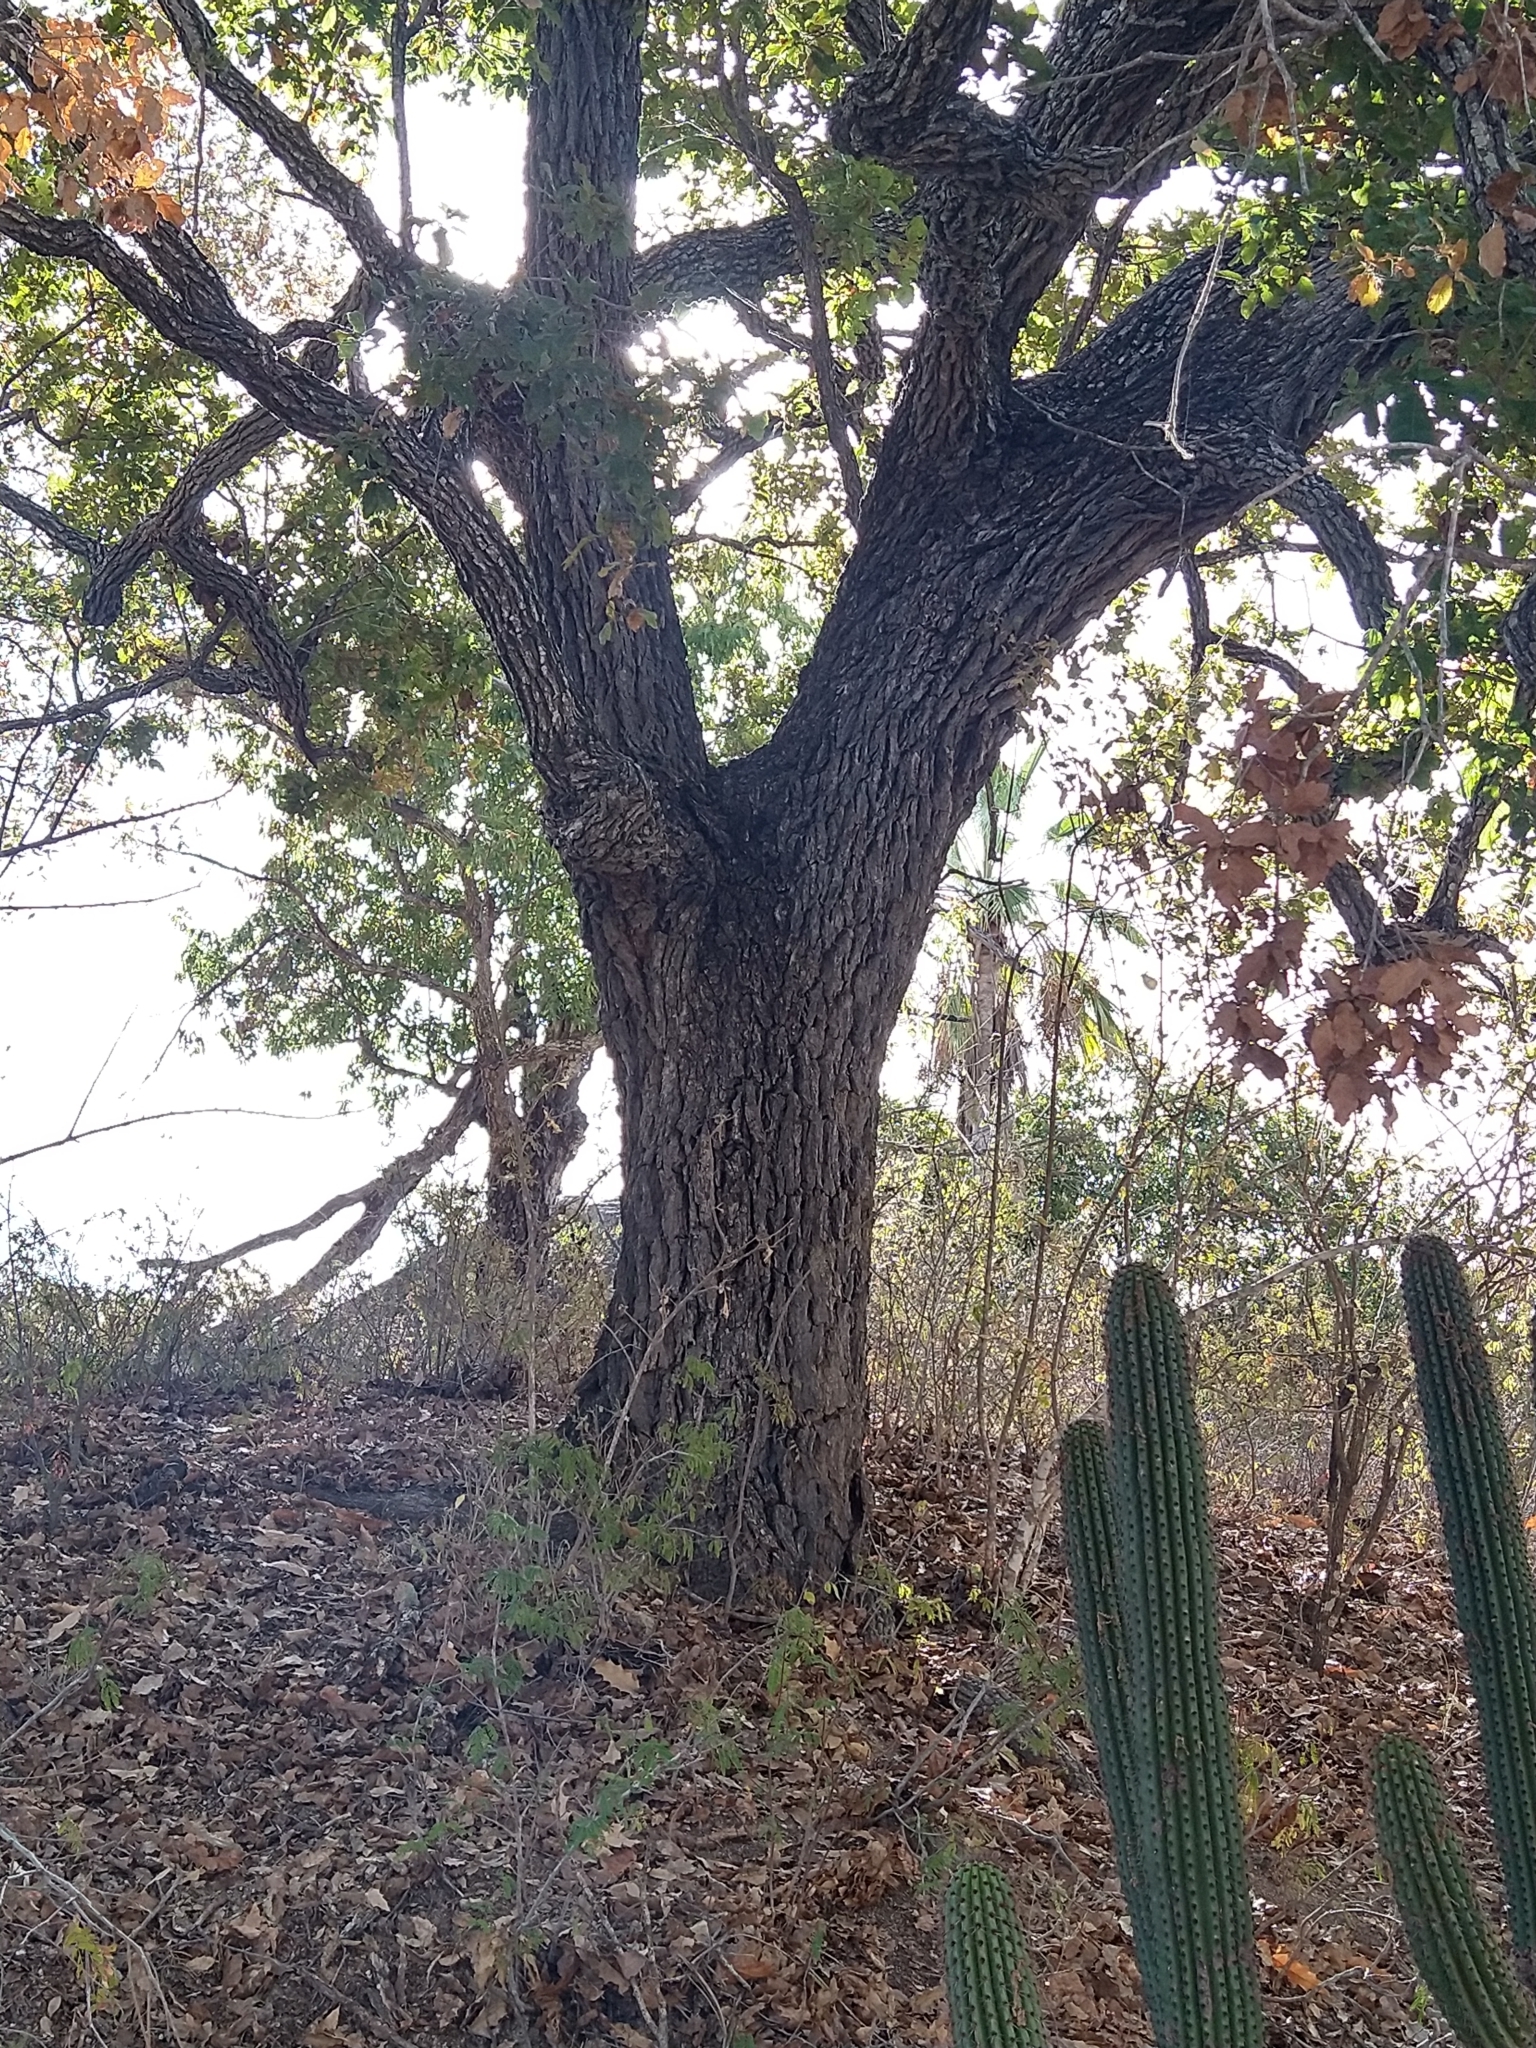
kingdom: Plantae
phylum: Tracheophyta
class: Magnoliopsida
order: Fagales
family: Fagaceae
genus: Quercus
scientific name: Quercus tuberculata
